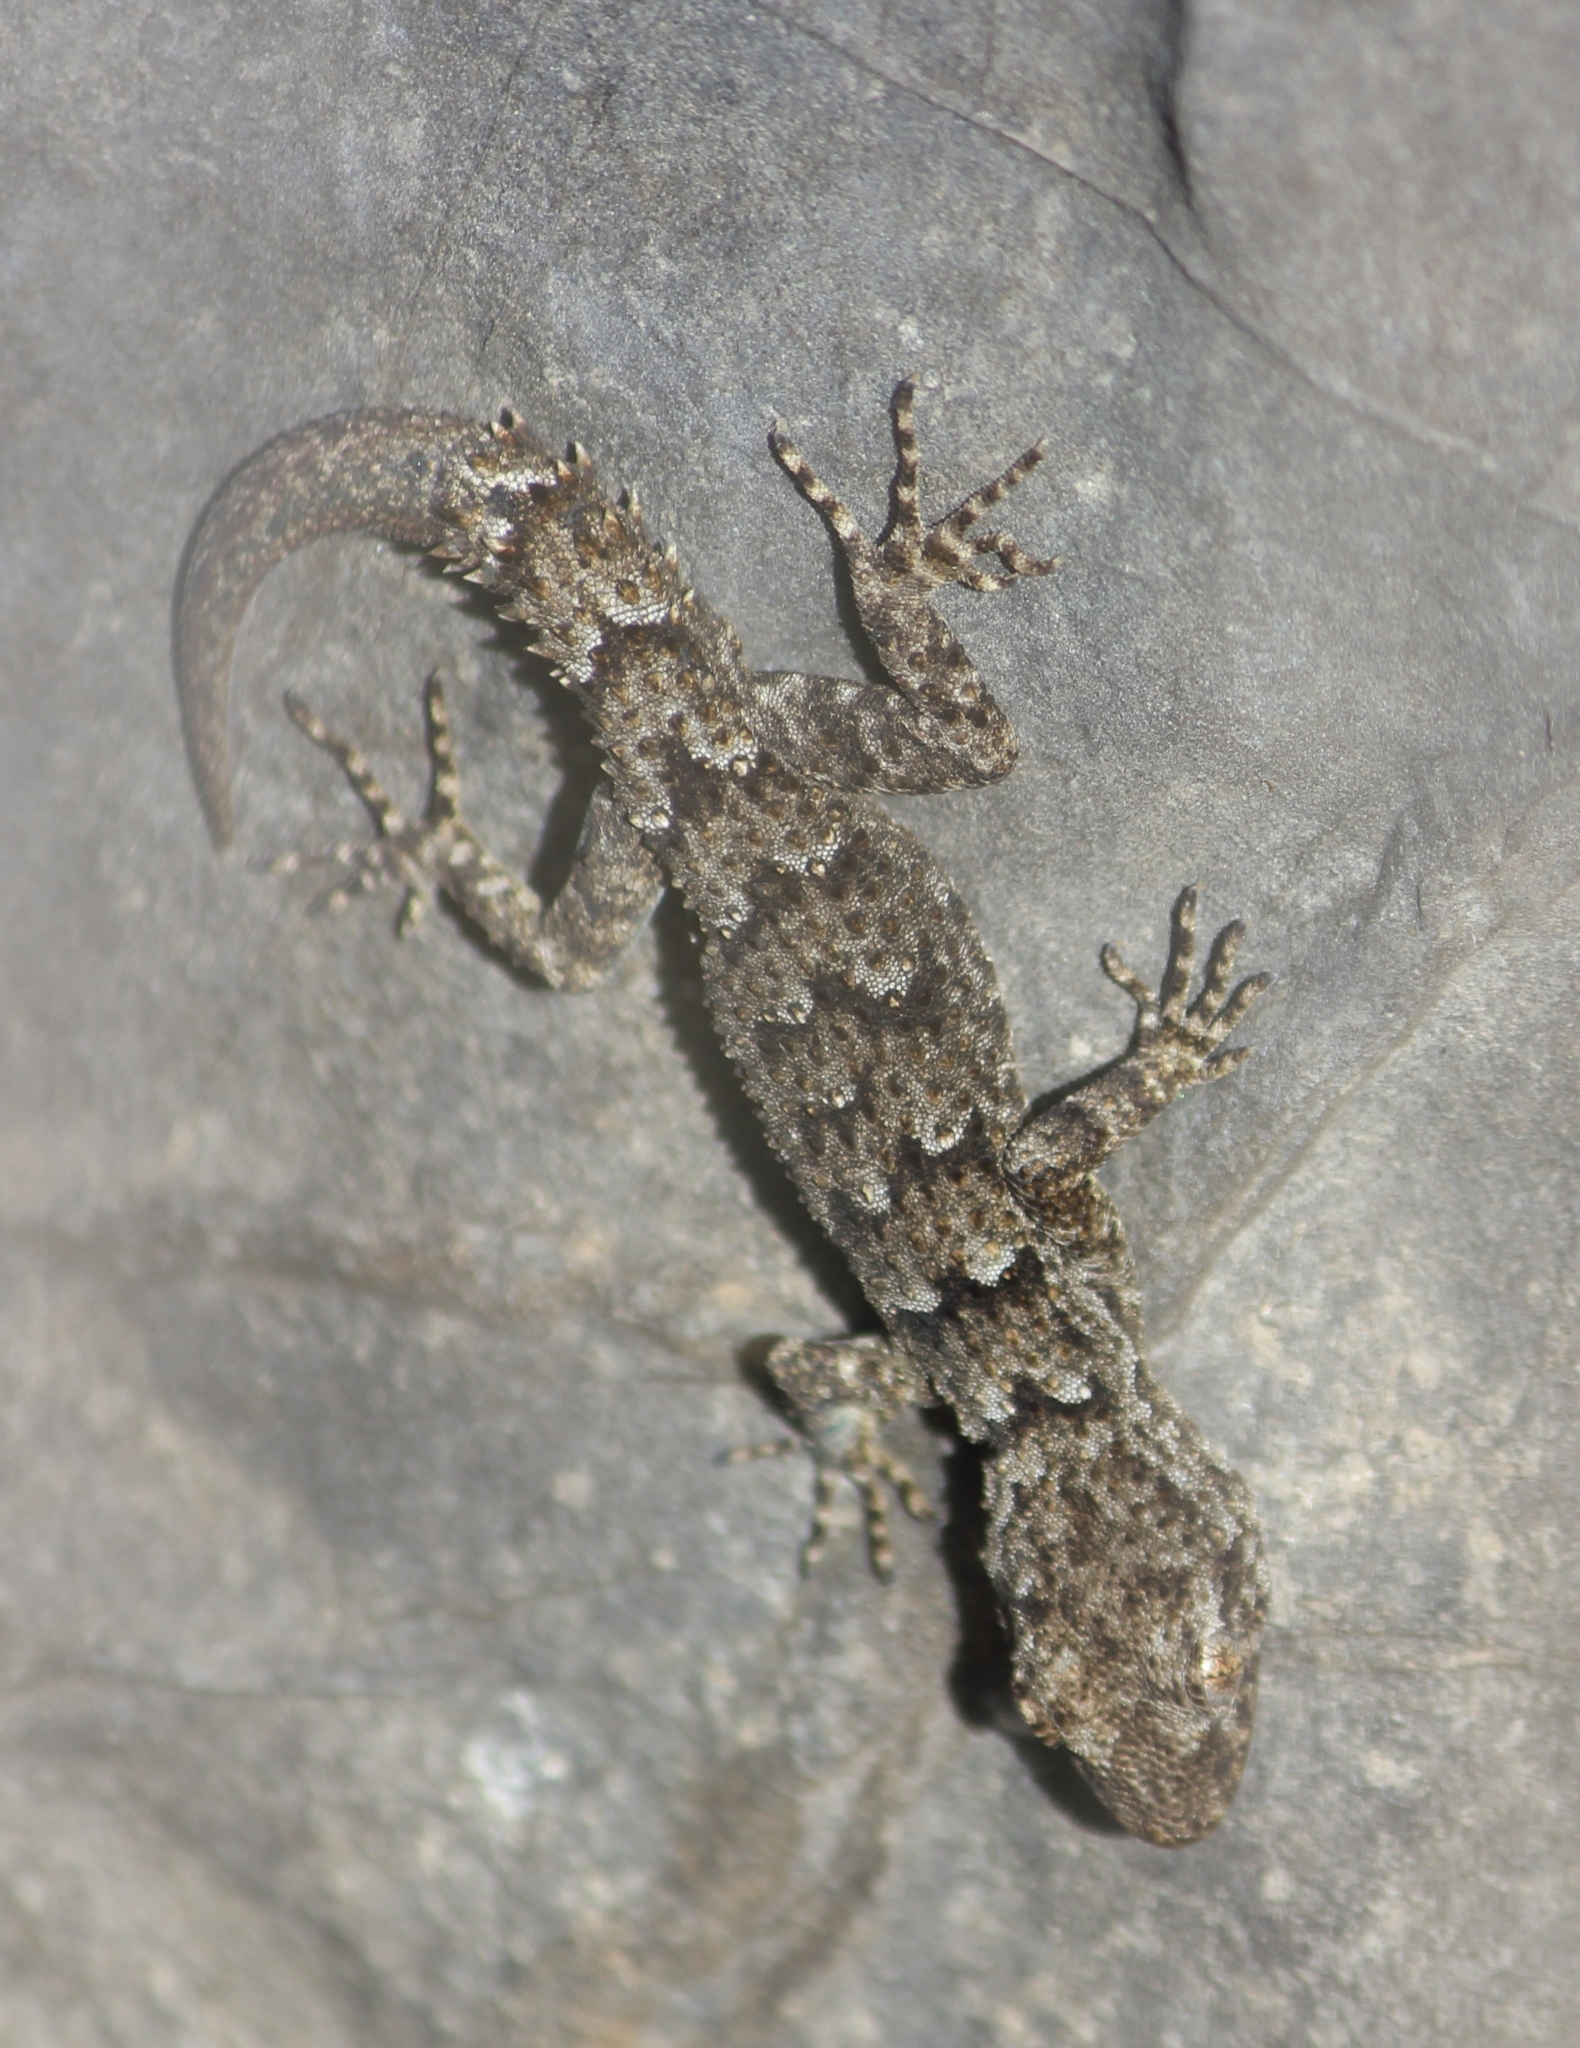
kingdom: Animalia
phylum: Chordata
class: Squamata
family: Gekkonidae
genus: Mediodactylus
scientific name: Mediodactylus kotschyi
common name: Kotschy's gecko
